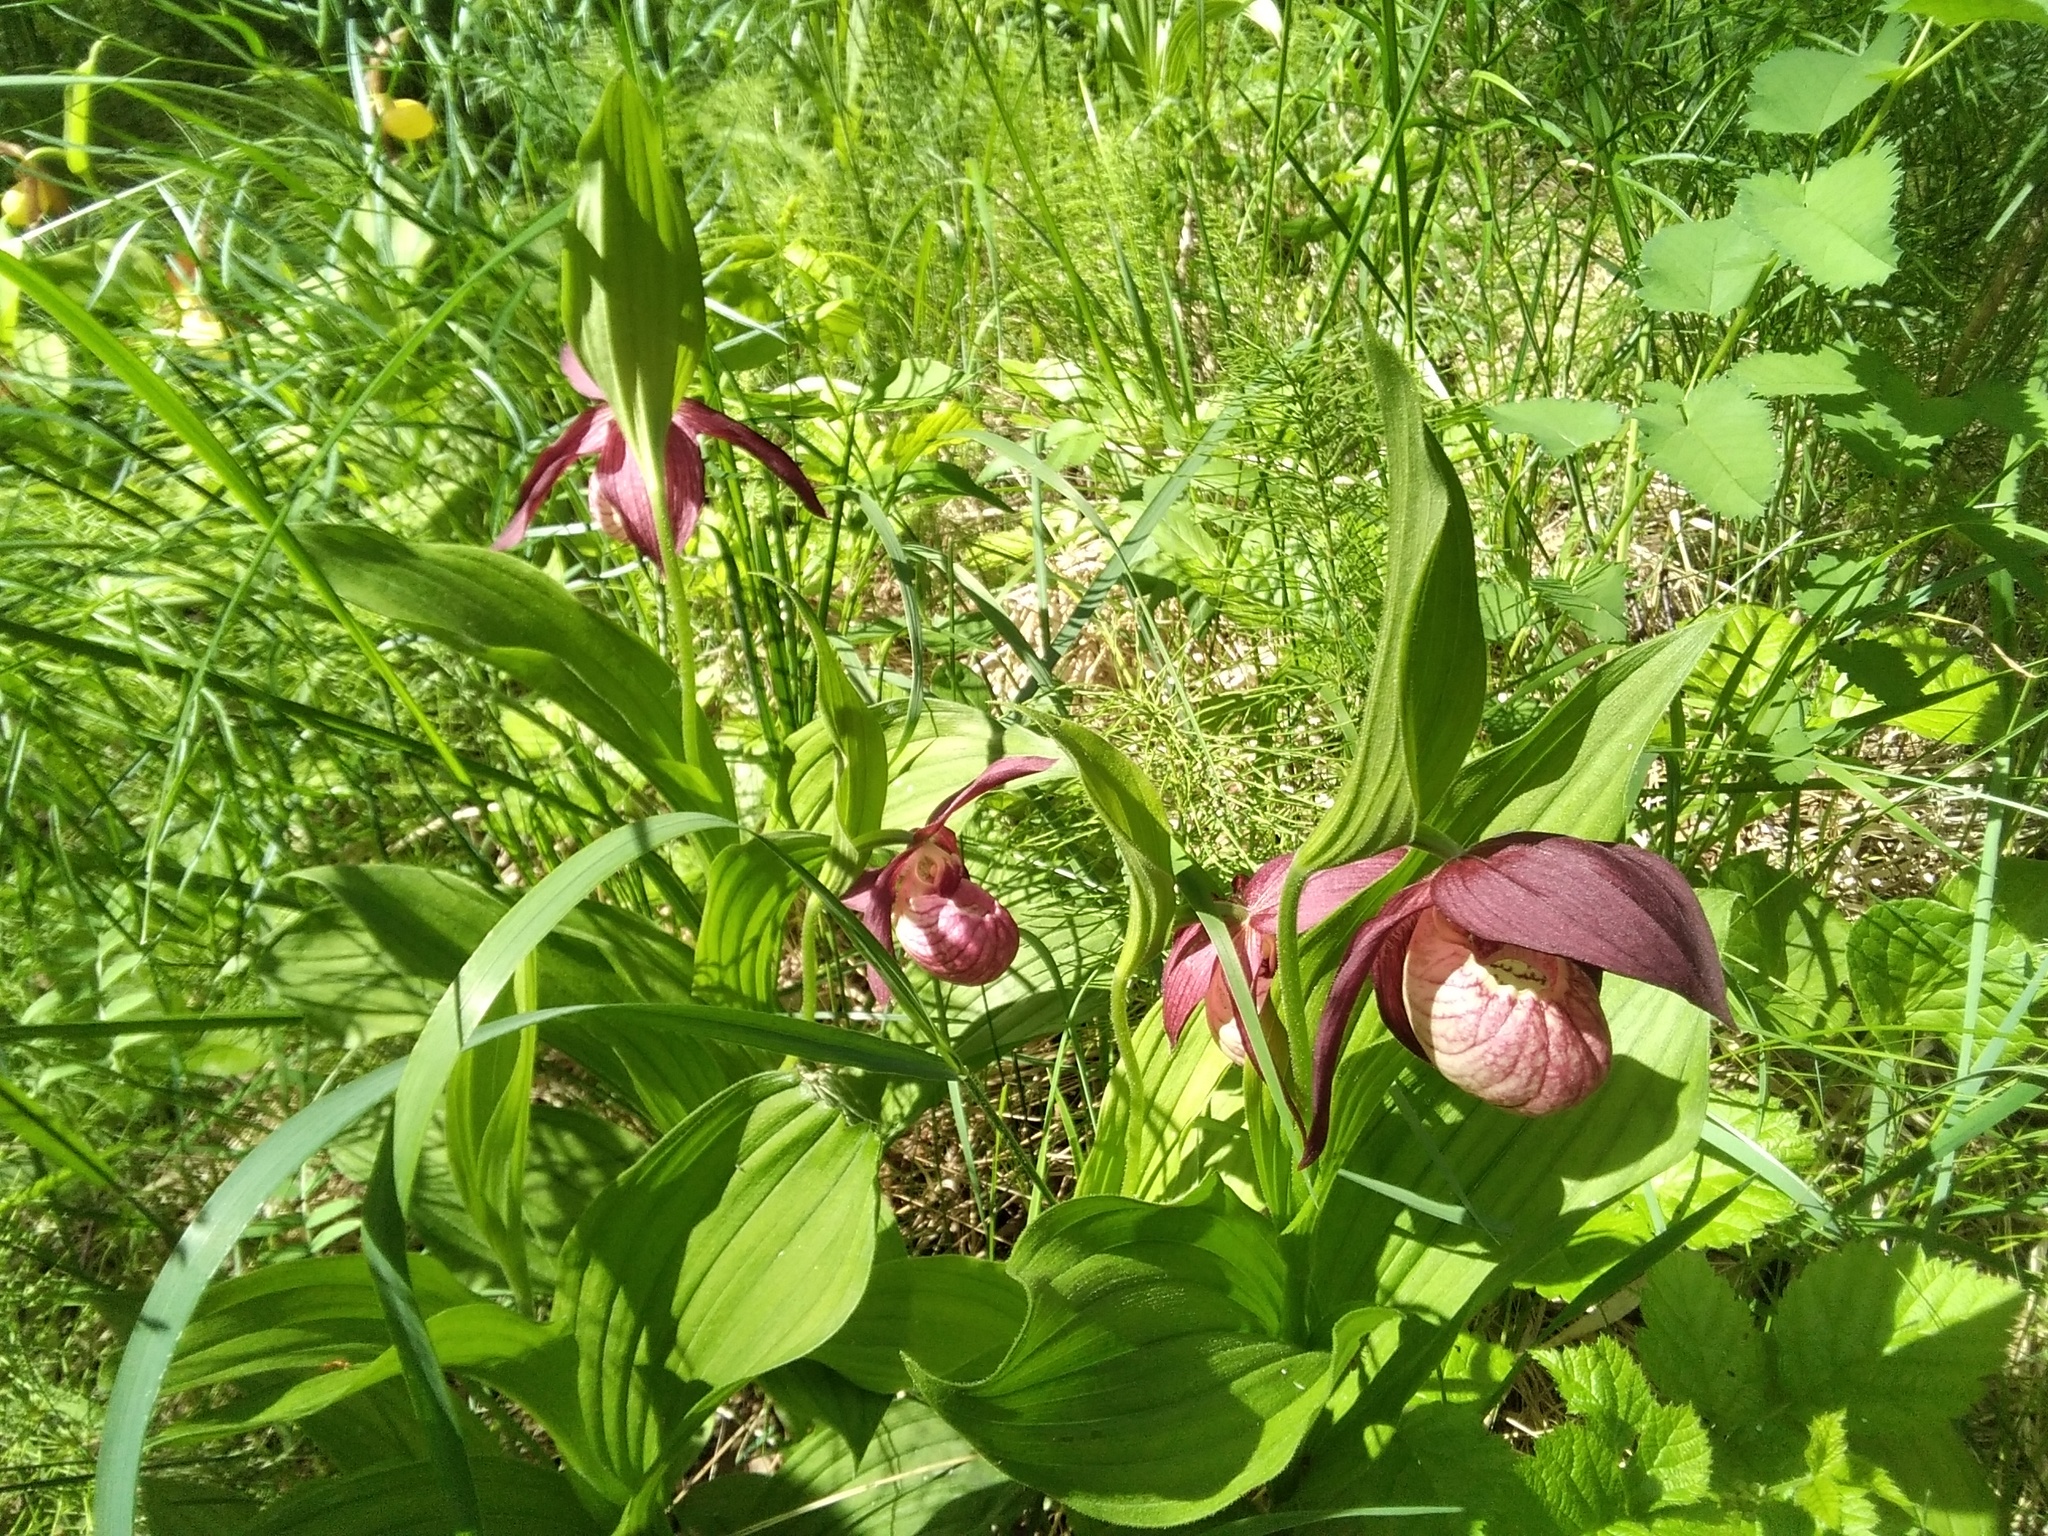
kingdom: Plantae
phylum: Tracheophyta
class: Liliopsida
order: Asparagales
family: Orchidaceae
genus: Cypripedium
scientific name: Cypripedium ventricosum
